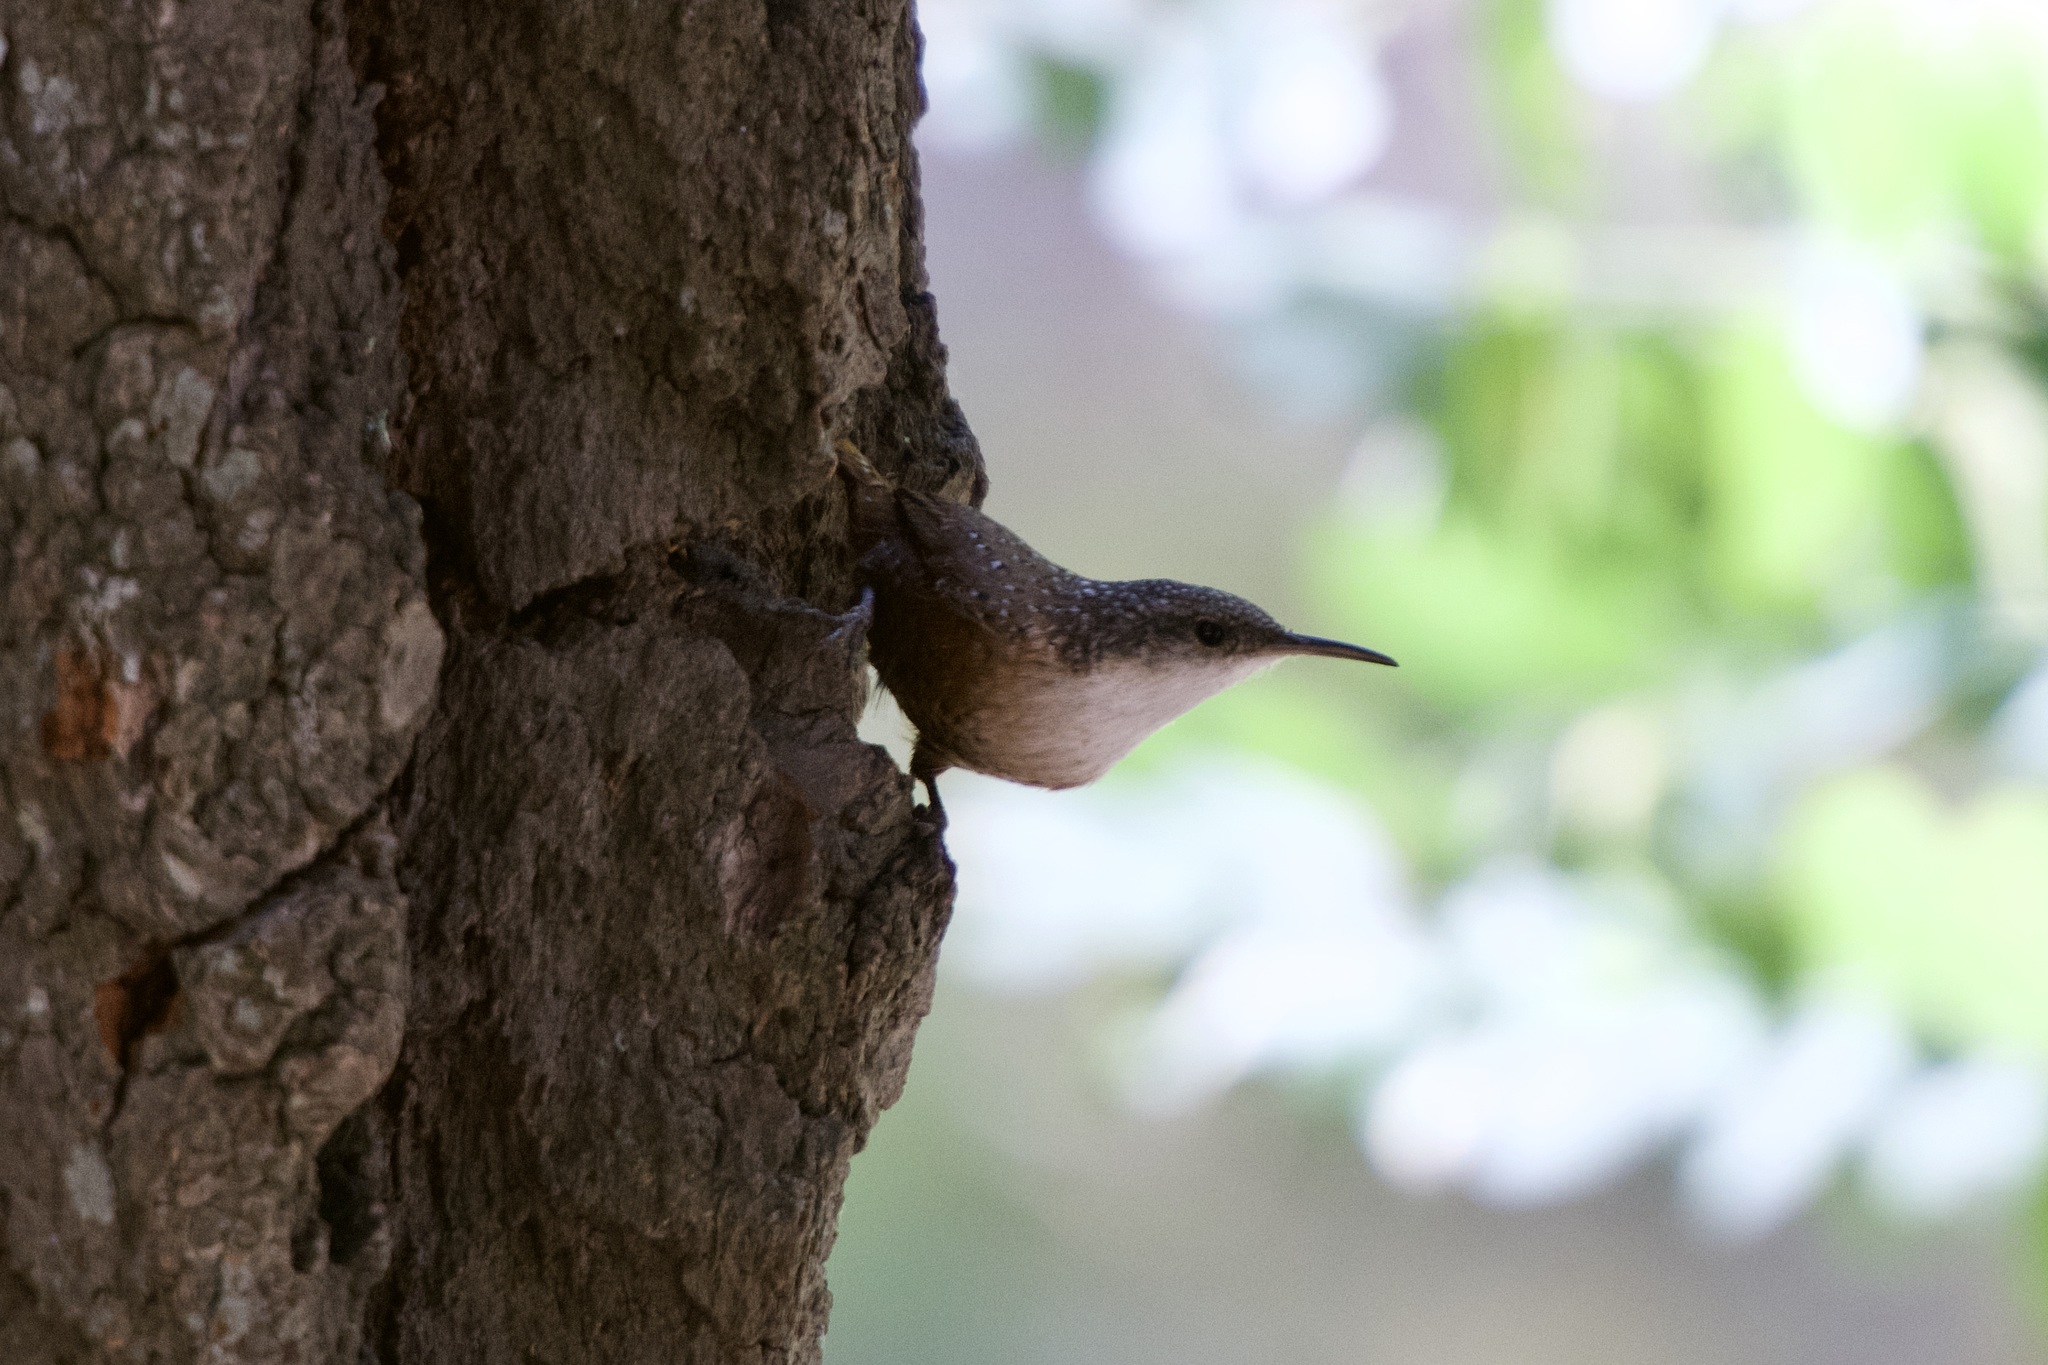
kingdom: Animalia
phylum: Chordata
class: Aves
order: Passeriformes
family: Troglodytidae
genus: Catherpes
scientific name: Catherpes mexicanus
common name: Canyon wren
